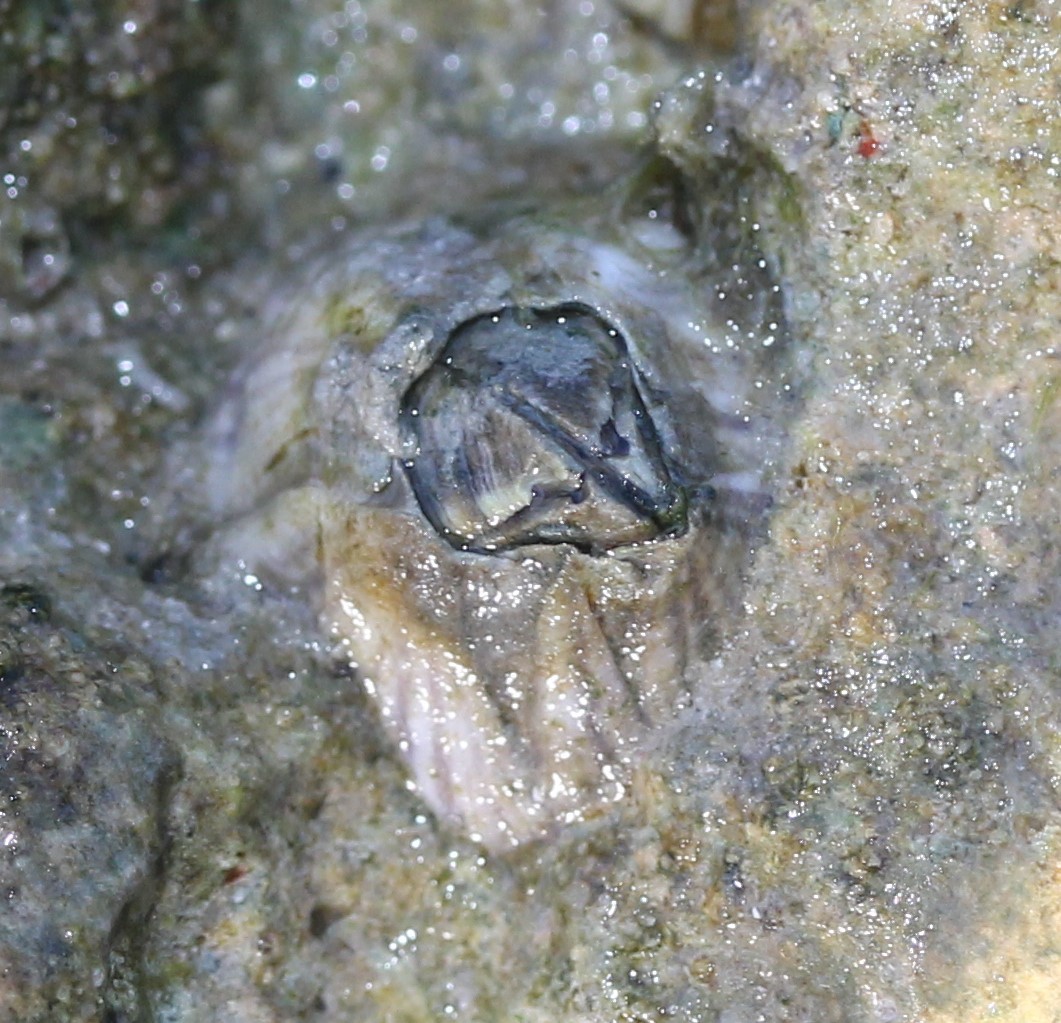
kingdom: Animalia
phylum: Arthropoda
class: Maxillopoda
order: Sessilia
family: Balanidae
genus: Amphibalanus
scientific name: Amphibalanus amphitrite
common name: Striped acorn barnacle
